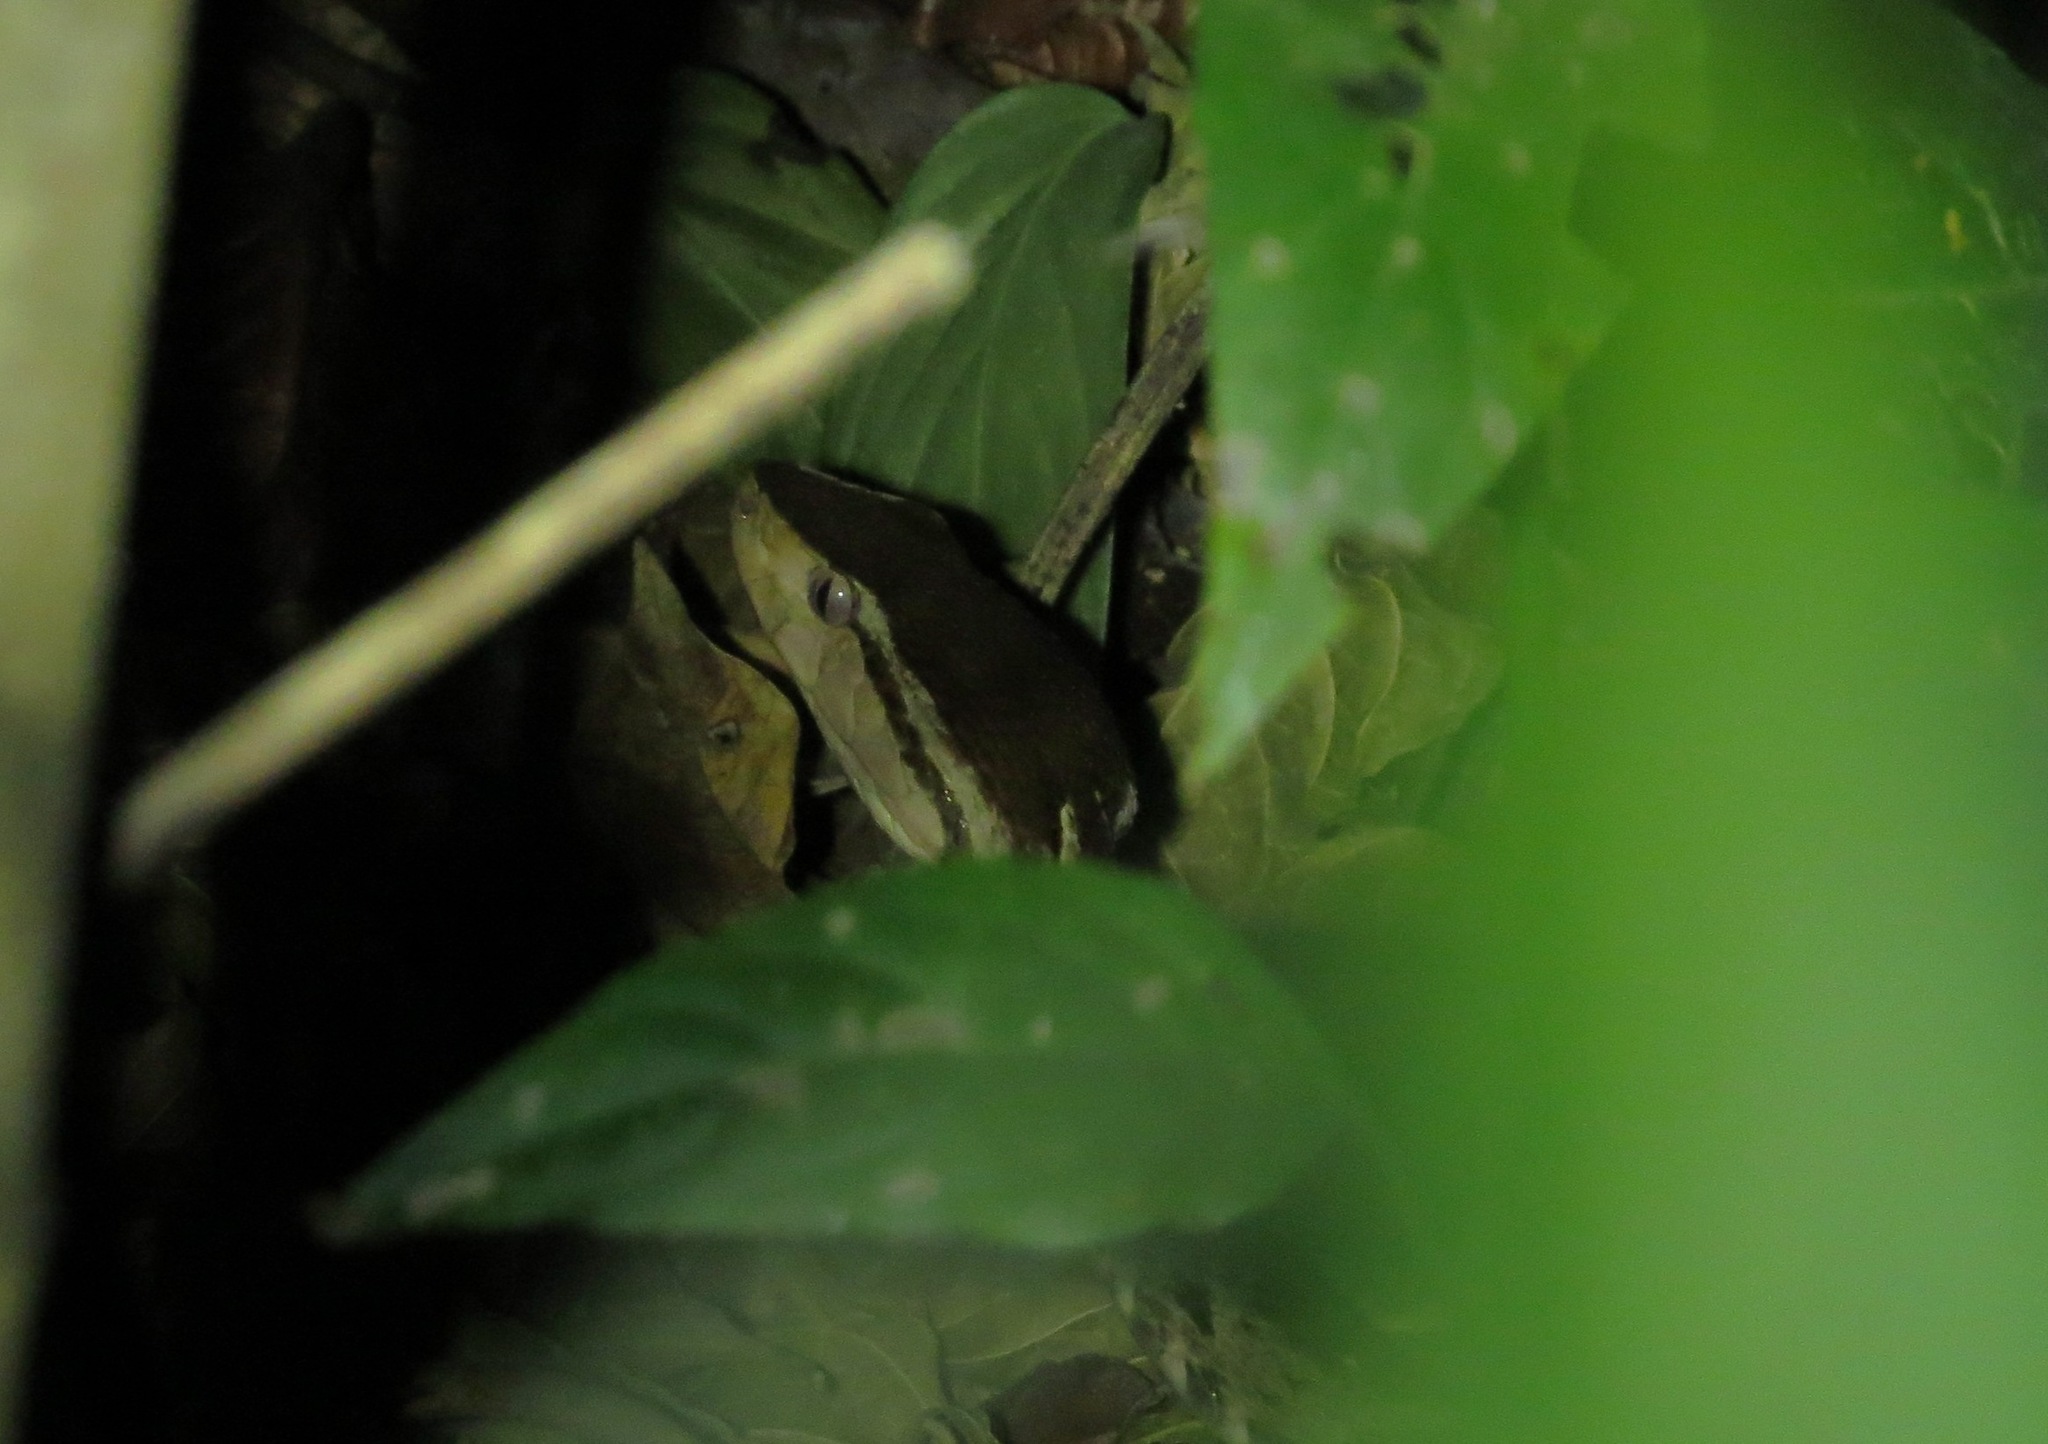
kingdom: Animalia
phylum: Chordata
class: Squamata
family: Viperidae
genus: Bothrops
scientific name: Bothrops asper
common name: Terciopelo
